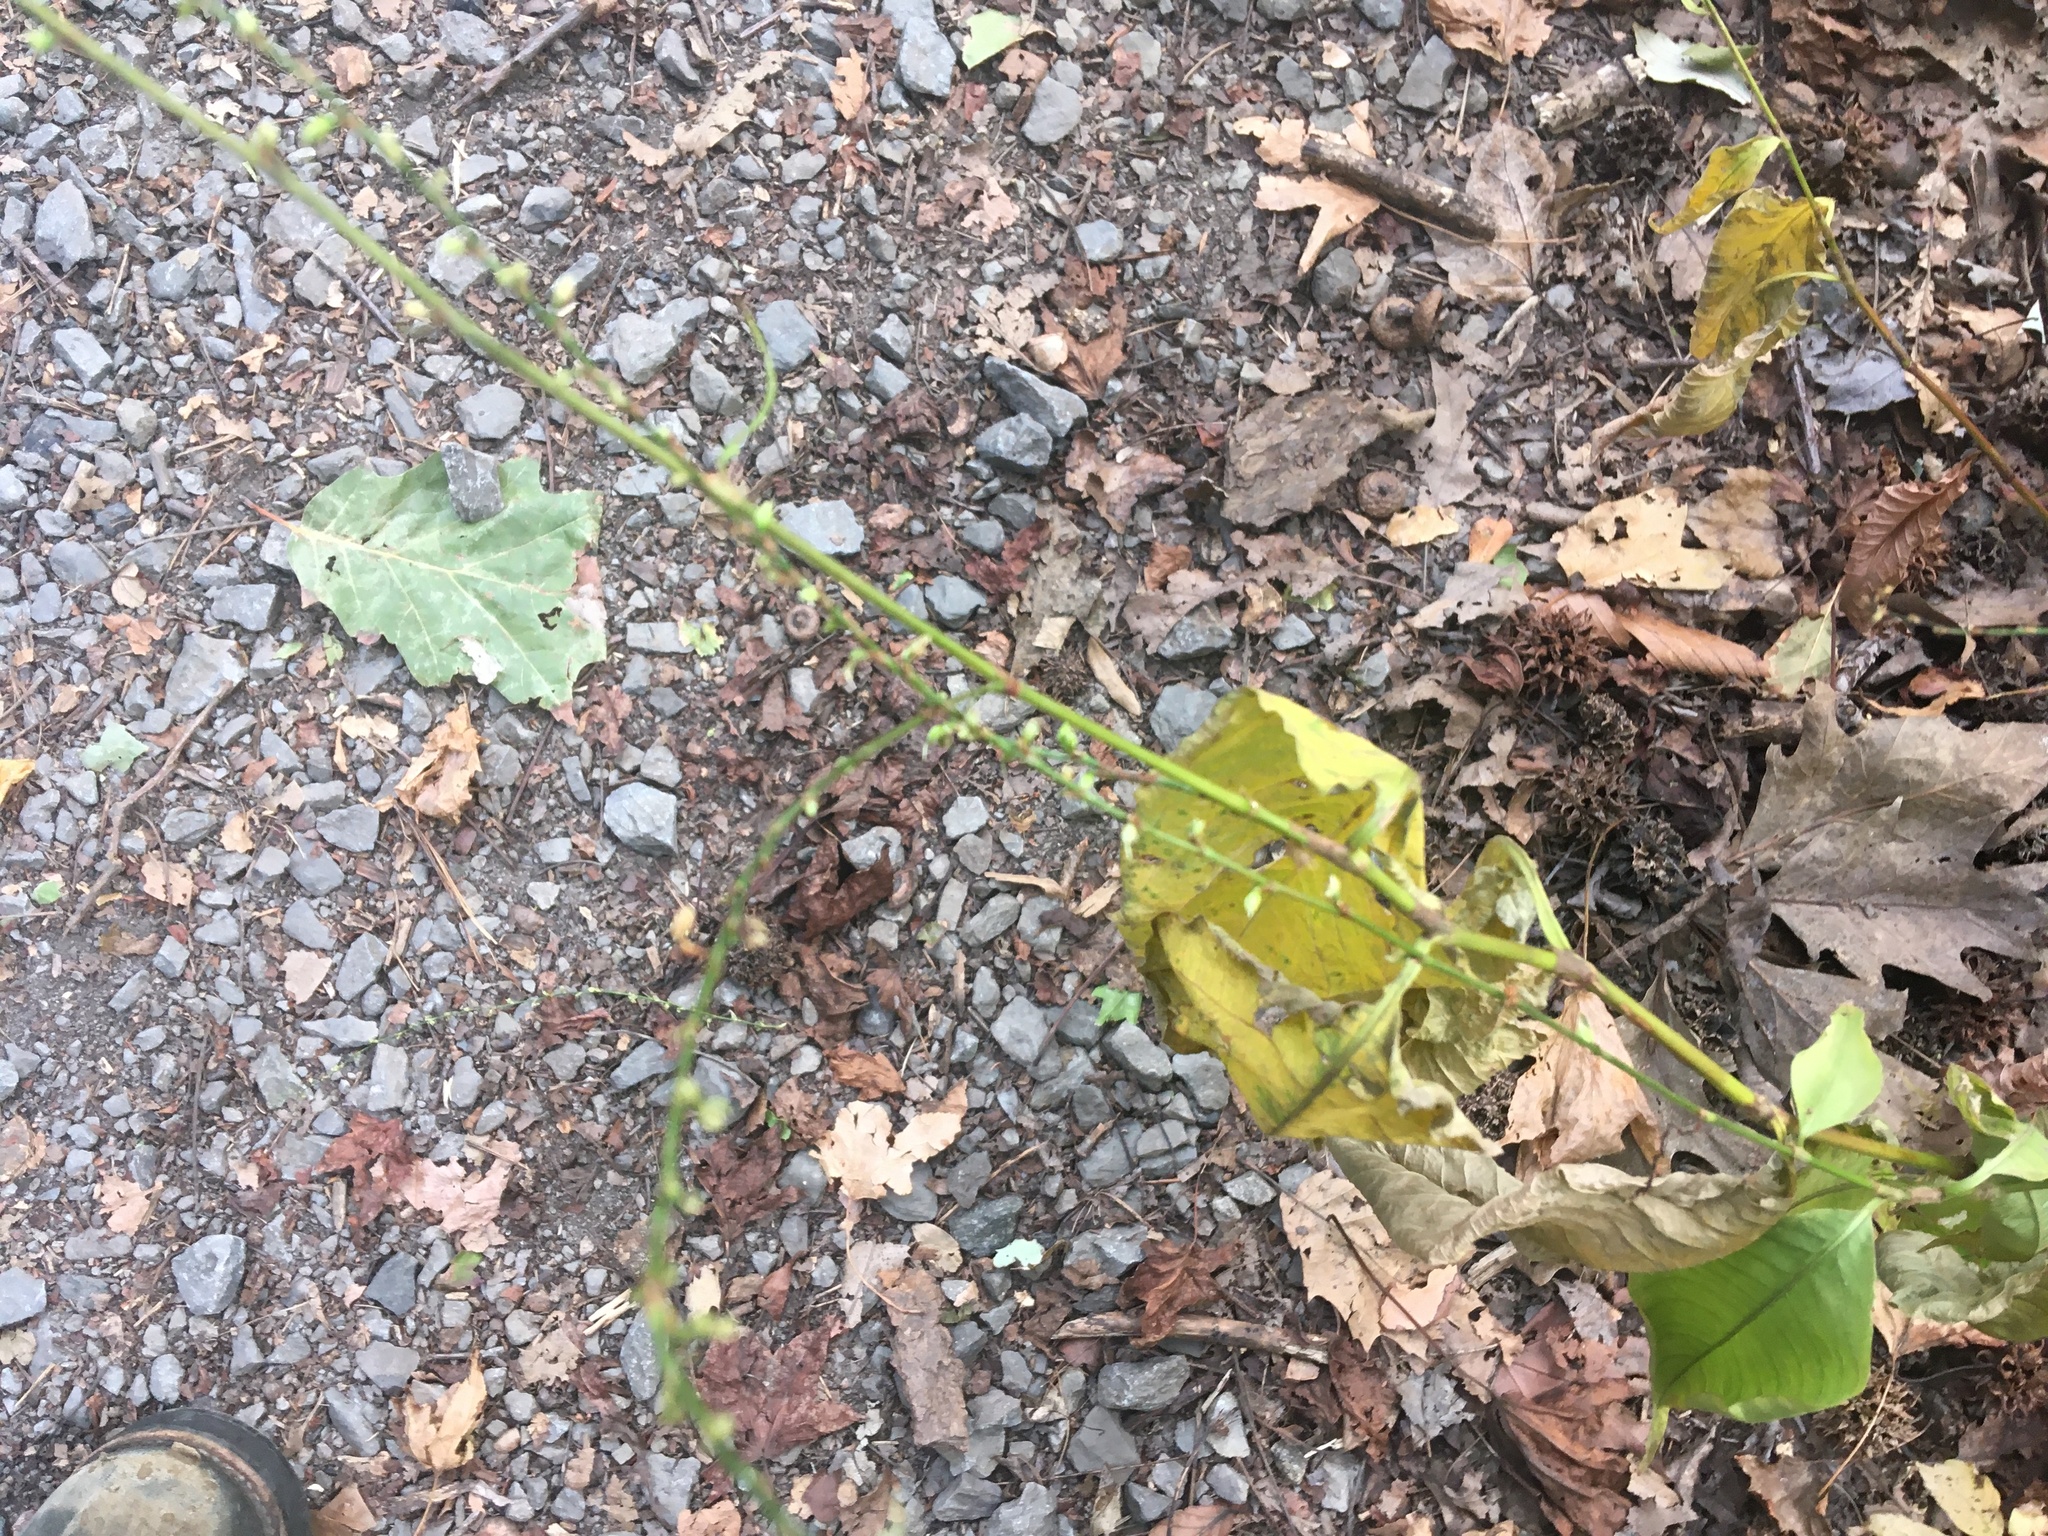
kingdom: Plantae
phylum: Tracheophyta
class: Magnoliopsida
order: Caryophyllales
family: Polygonaceae
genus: Persicaria
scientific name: Persicaria virginiana
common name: Jumpseed
